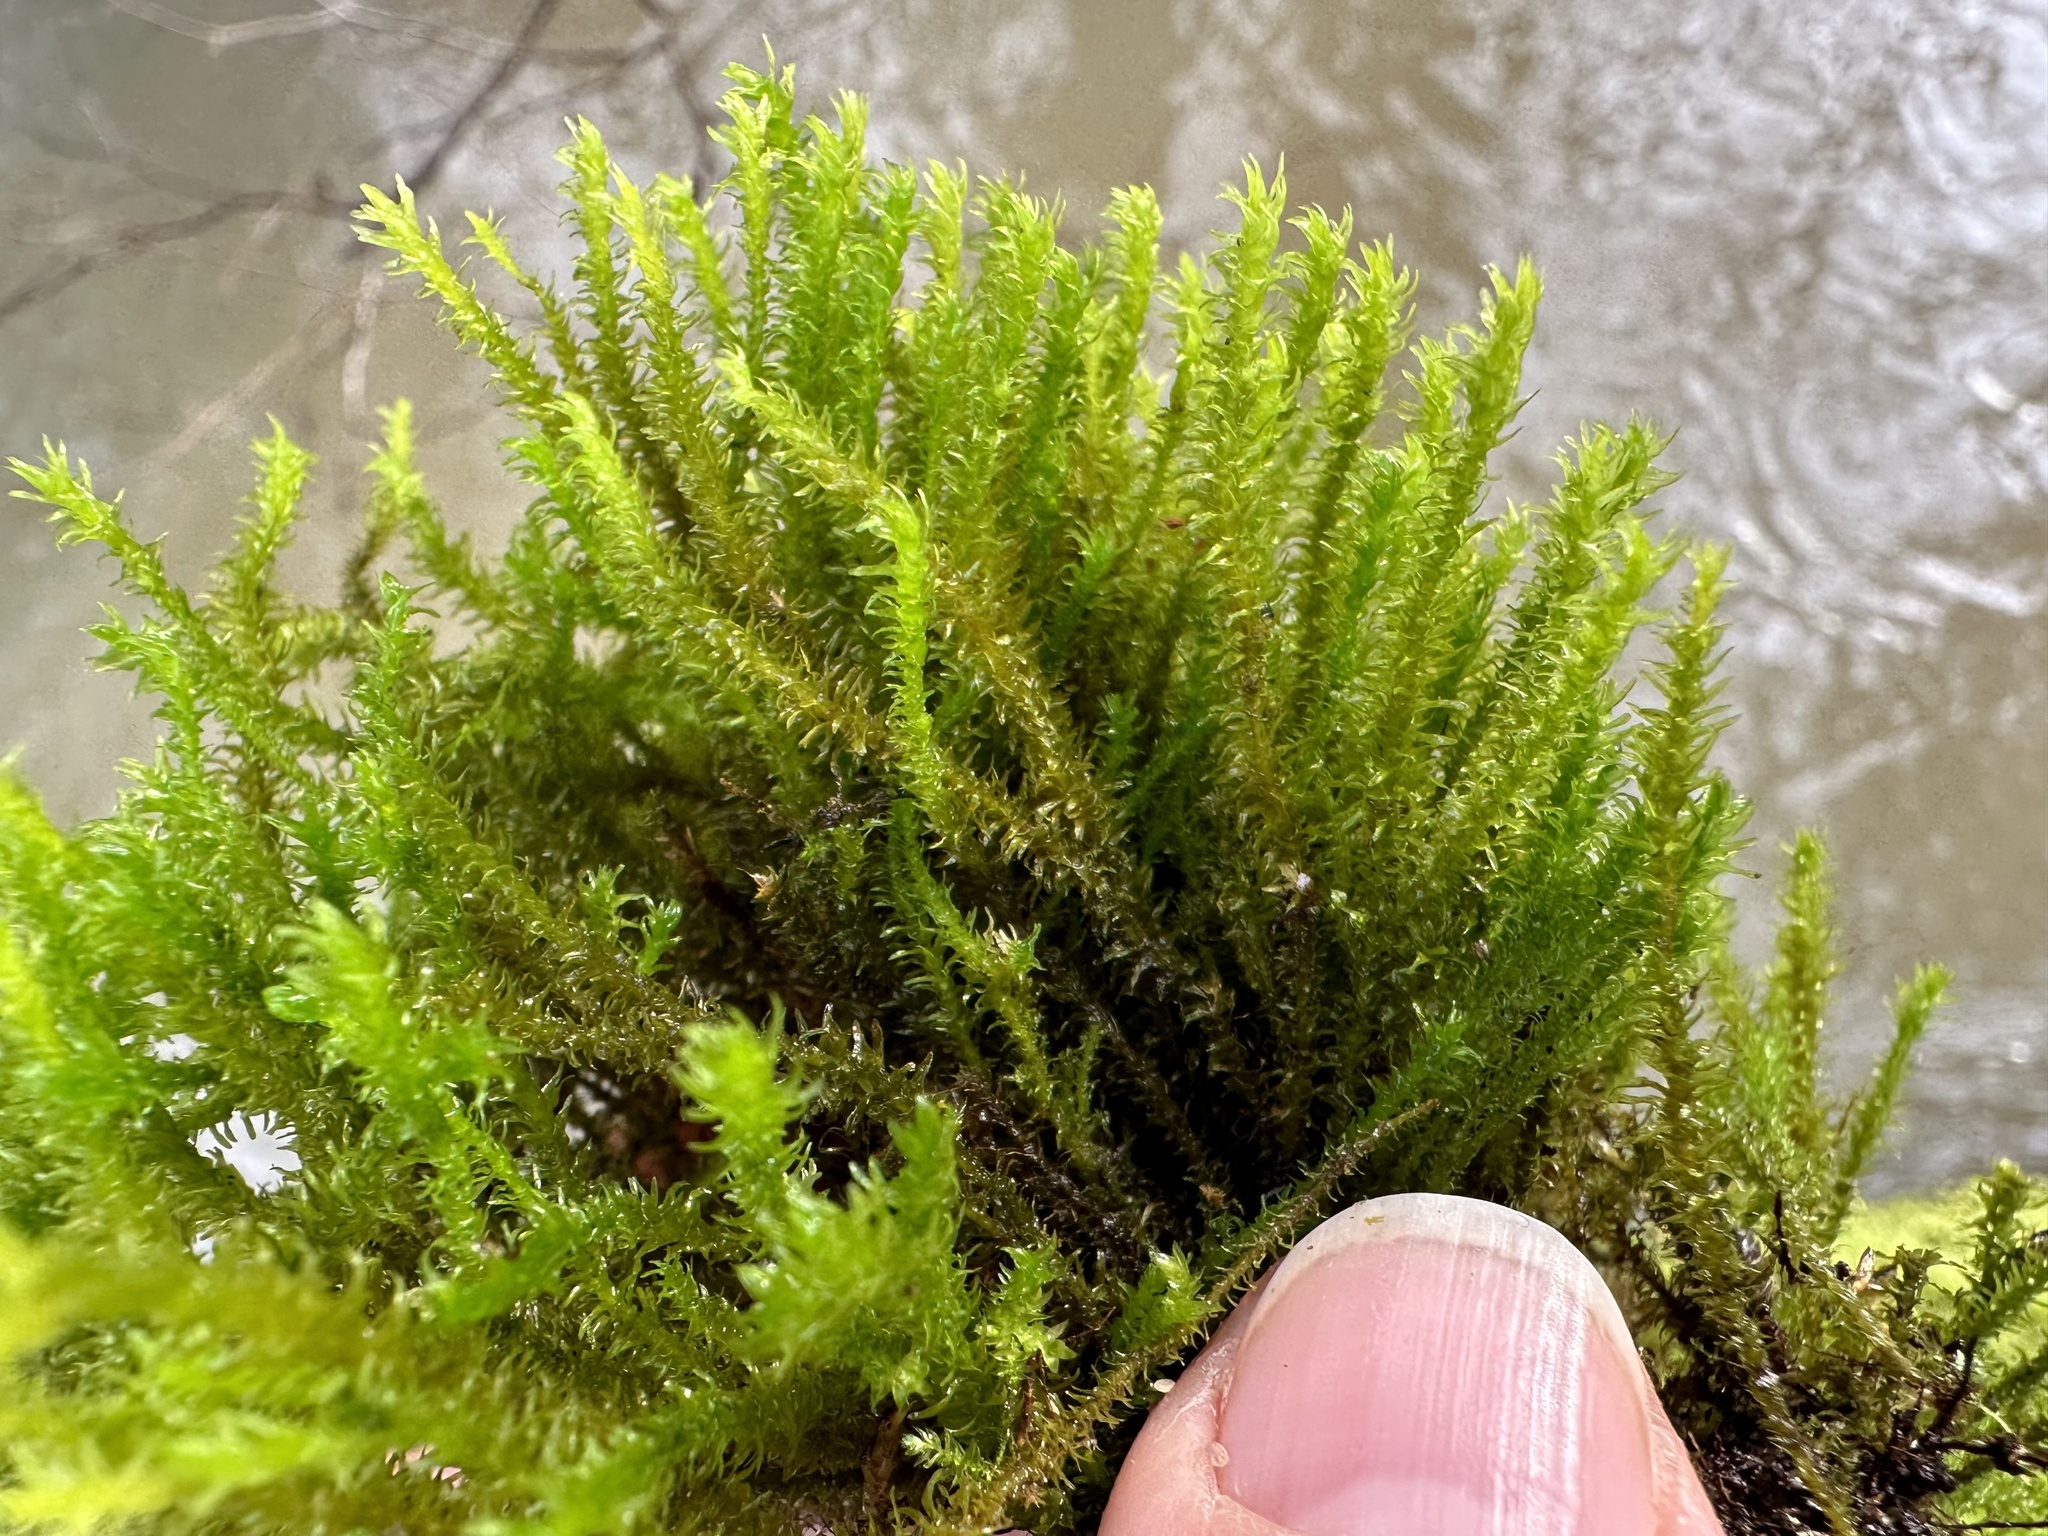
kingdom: Plantae
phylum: Bryophyta
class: Bryopsida
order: Hypnales
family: Anomodontaceae
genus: Anomodon
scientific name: Anomodon viticulosus
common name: Tall anomodon
